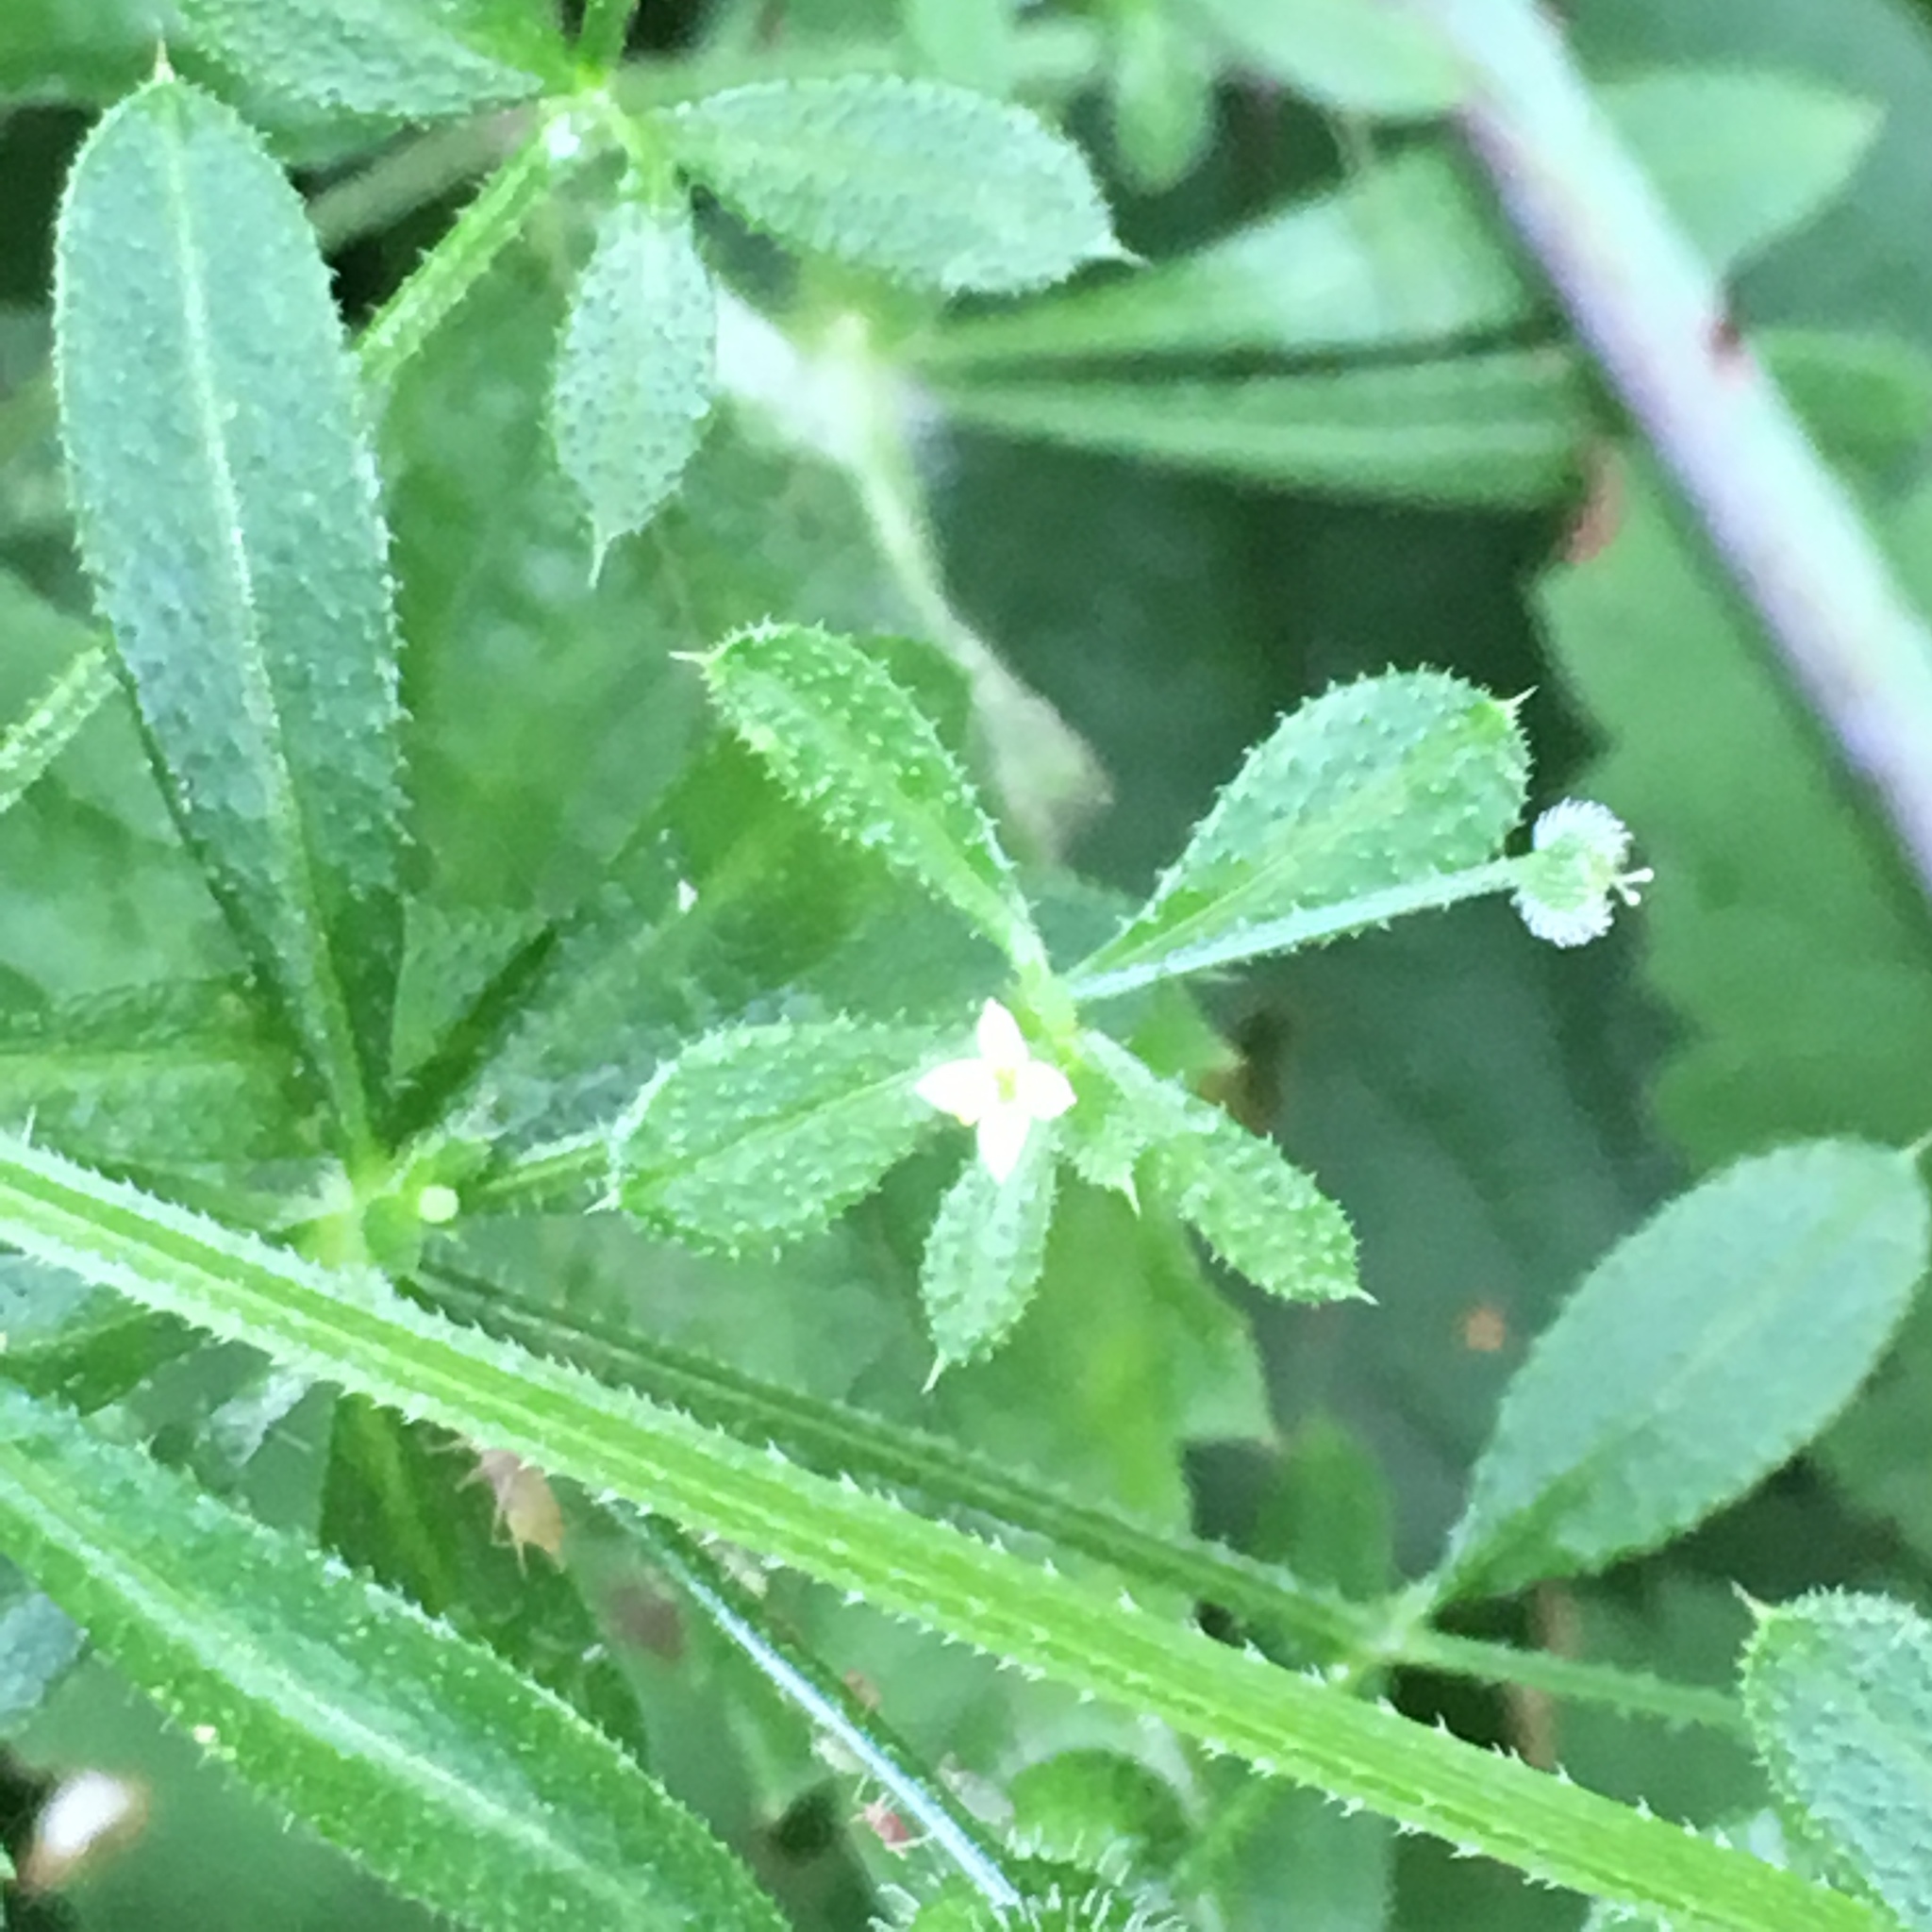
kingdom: Plantae
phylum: Tracheophyta
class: Magnoliopsida
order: Gentianales
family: Rubiaceae
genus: Galium
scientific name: Galium aparine
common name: Cleavers
